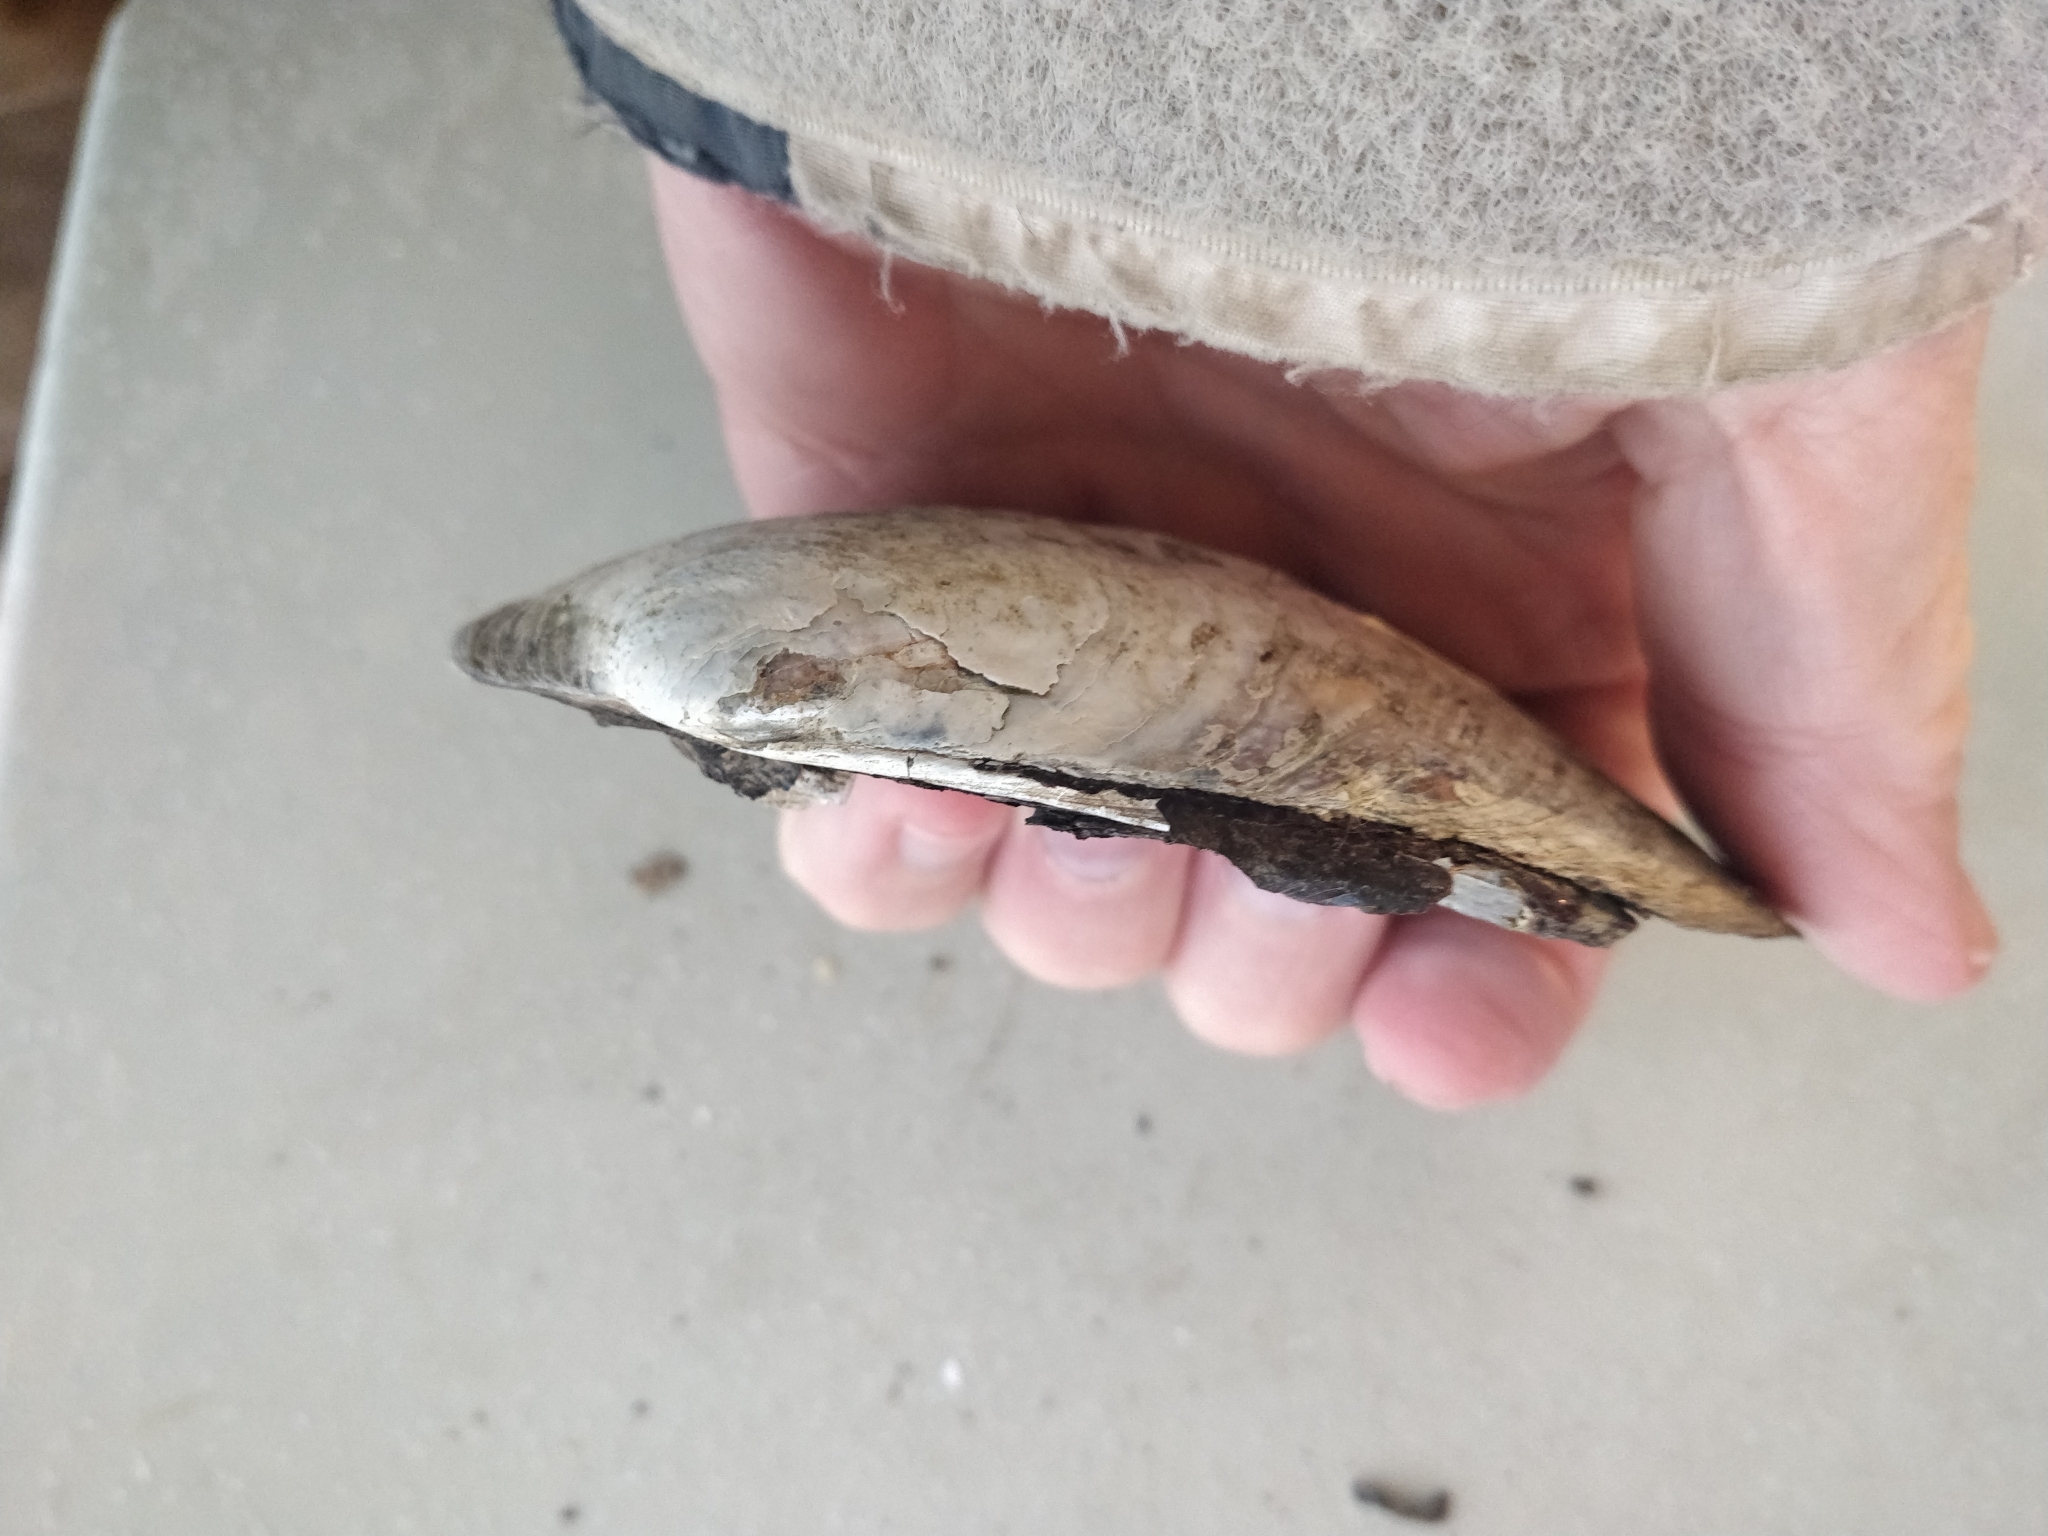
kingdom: Animalia
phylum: Mollusca
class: Bivalvia
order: Unionida
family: Unionidae
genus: Amblema
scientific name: Amblema plicata
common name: Threeridge
